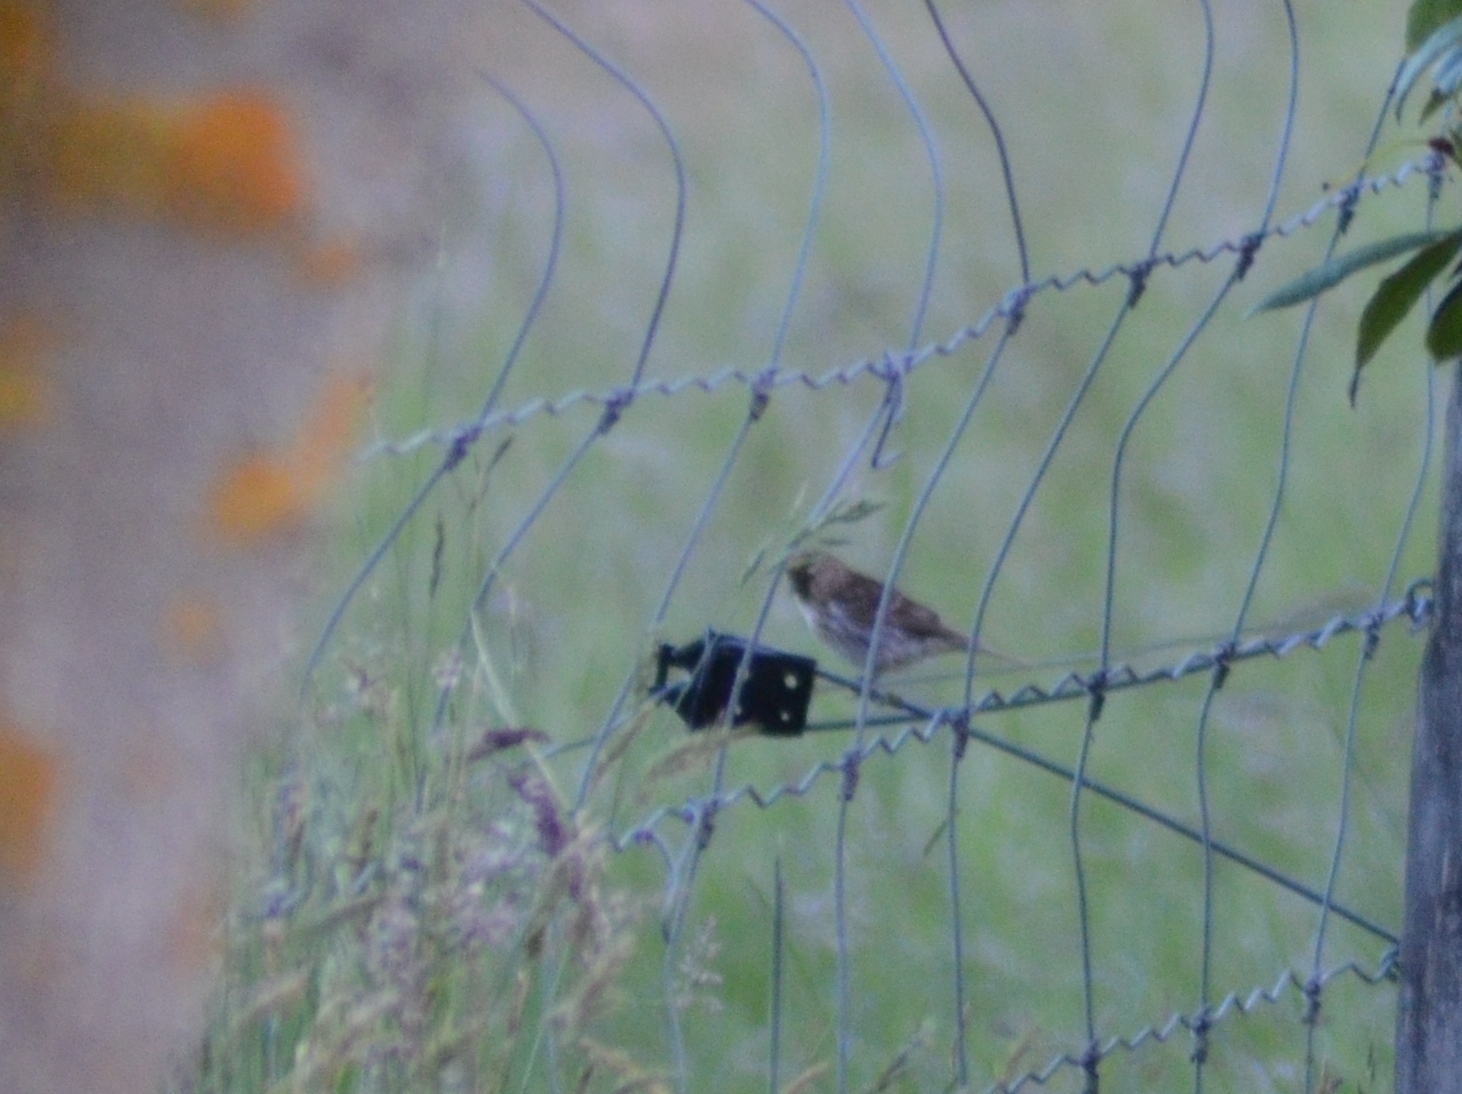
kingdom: Animalia
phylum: Chordata
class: Aves
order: Passeriformes
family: Fringillidae
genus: Acanthis
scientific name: Acanthis flammea
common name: Common redpoll
